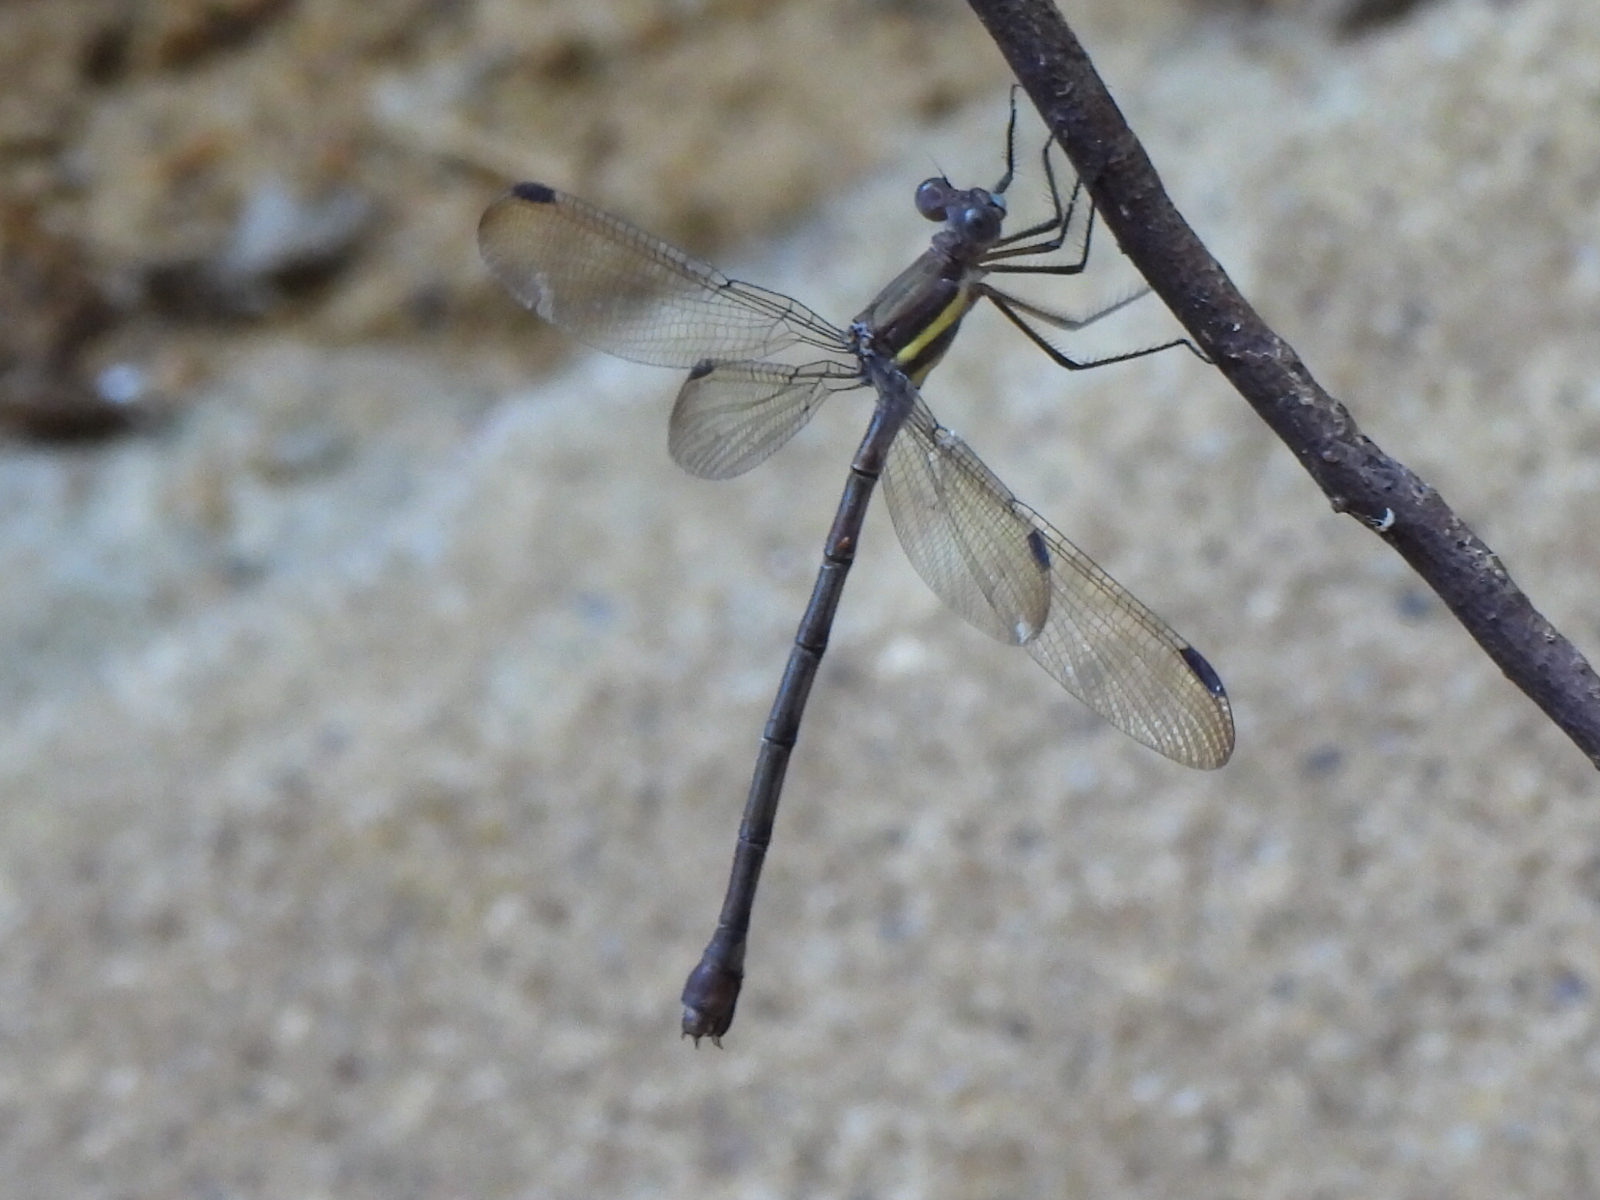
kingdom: Animalia
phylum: Arthropoda
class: Insecta
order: Odonata
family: Lestidae
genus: Archilestes
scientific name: Archilestes grandis
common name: Great spreadwing
